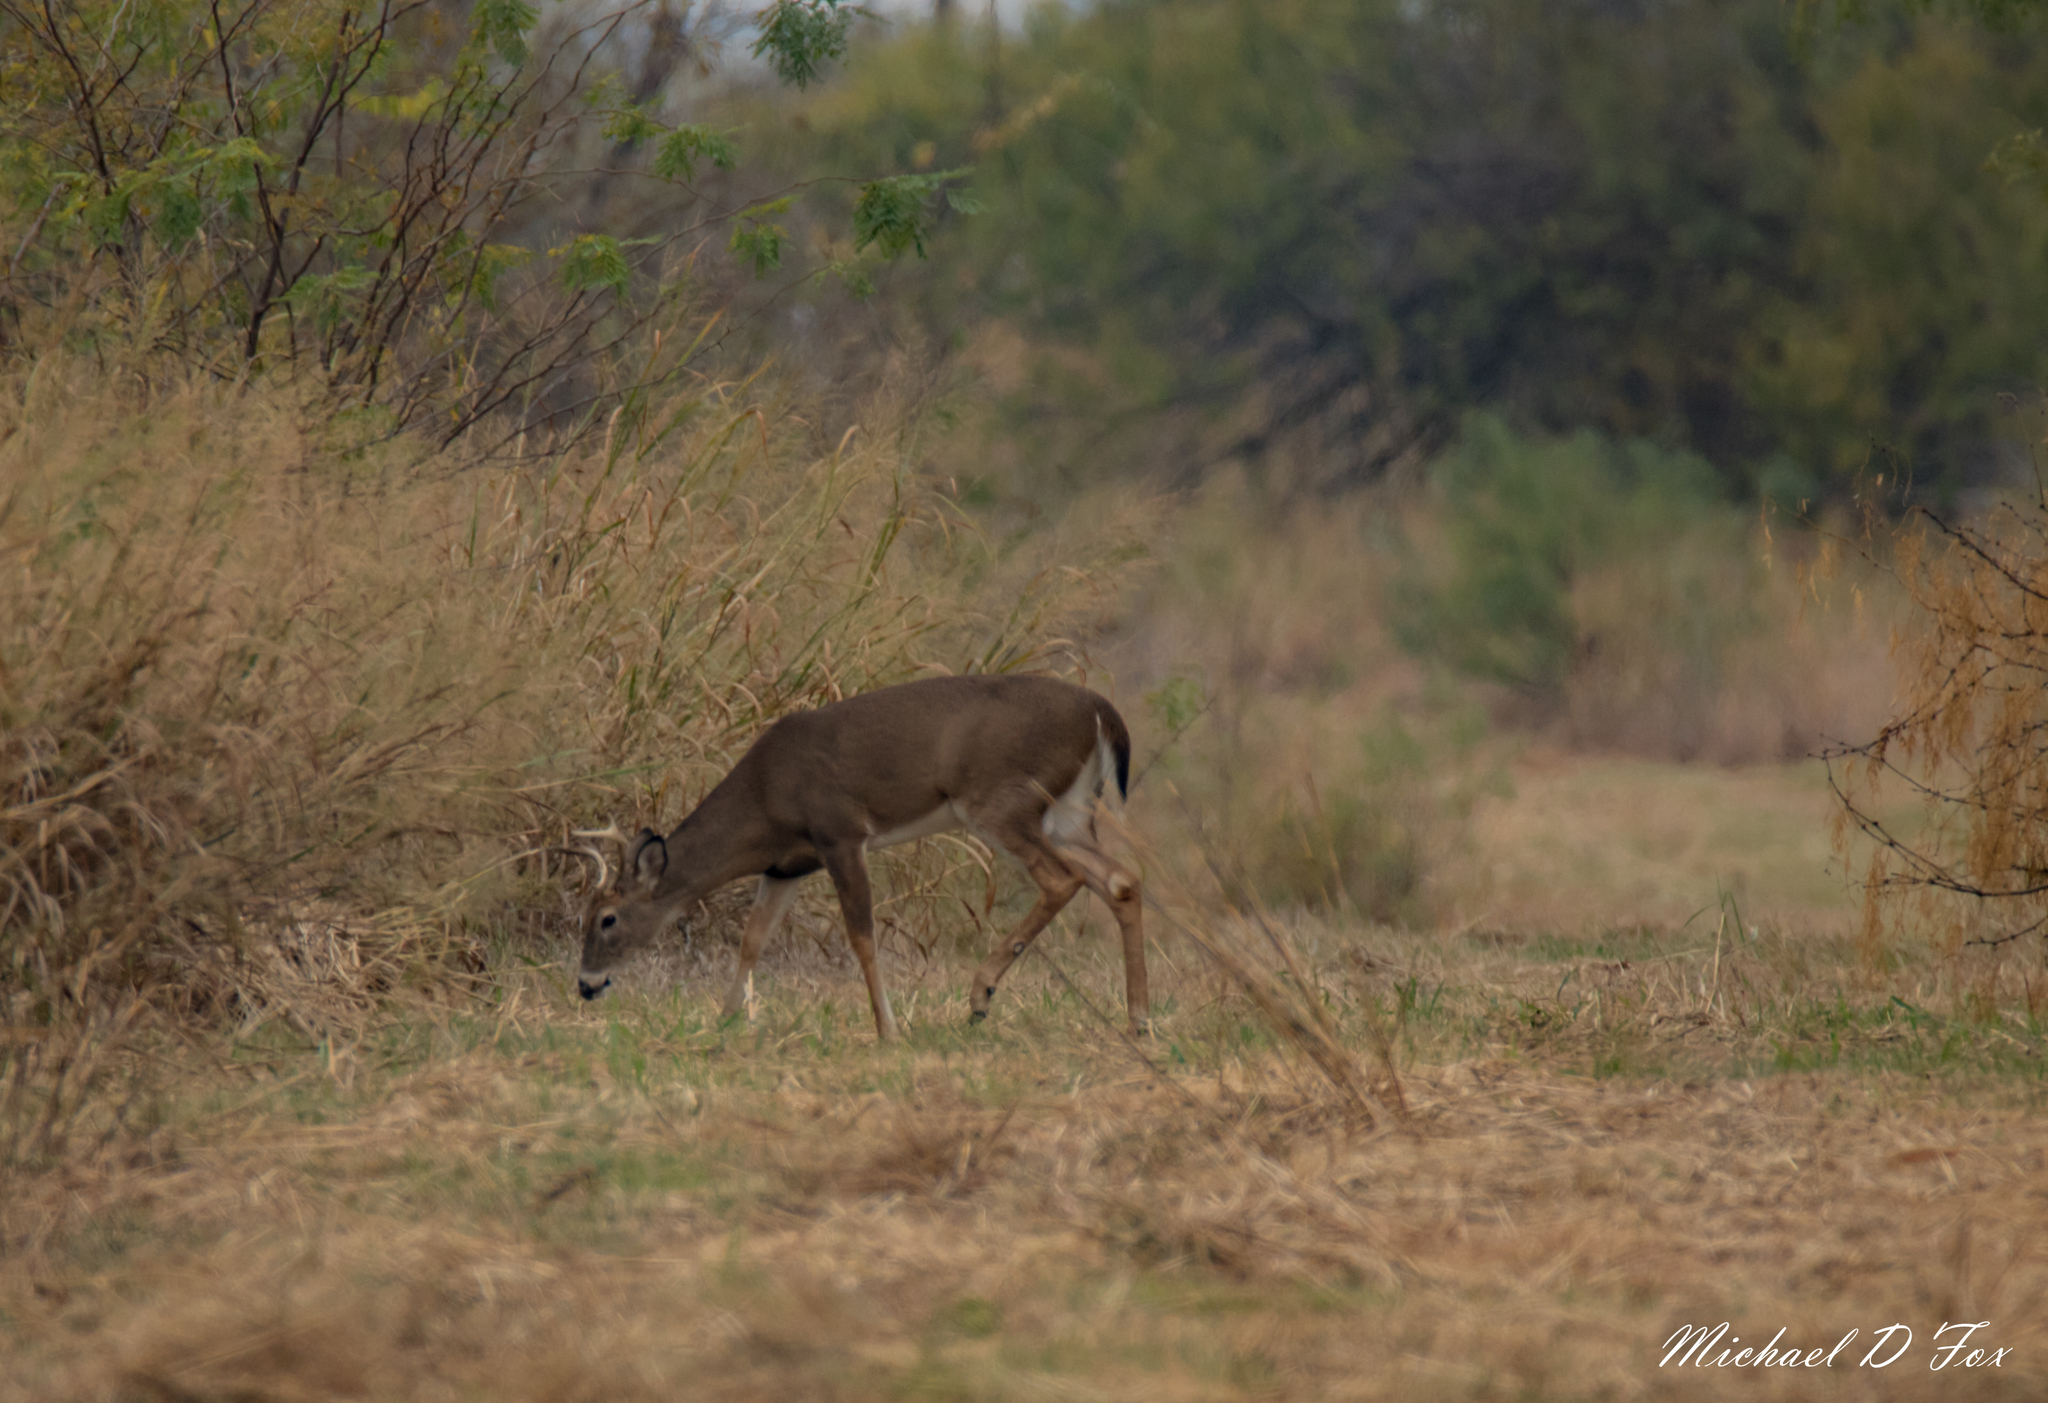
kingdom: Animalia
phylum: Chordata
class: Mammalia
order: Artiodactyla
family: Cervidae
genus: Odocoileus
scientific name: Odocoileus virginianus
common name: White-tailed deer
